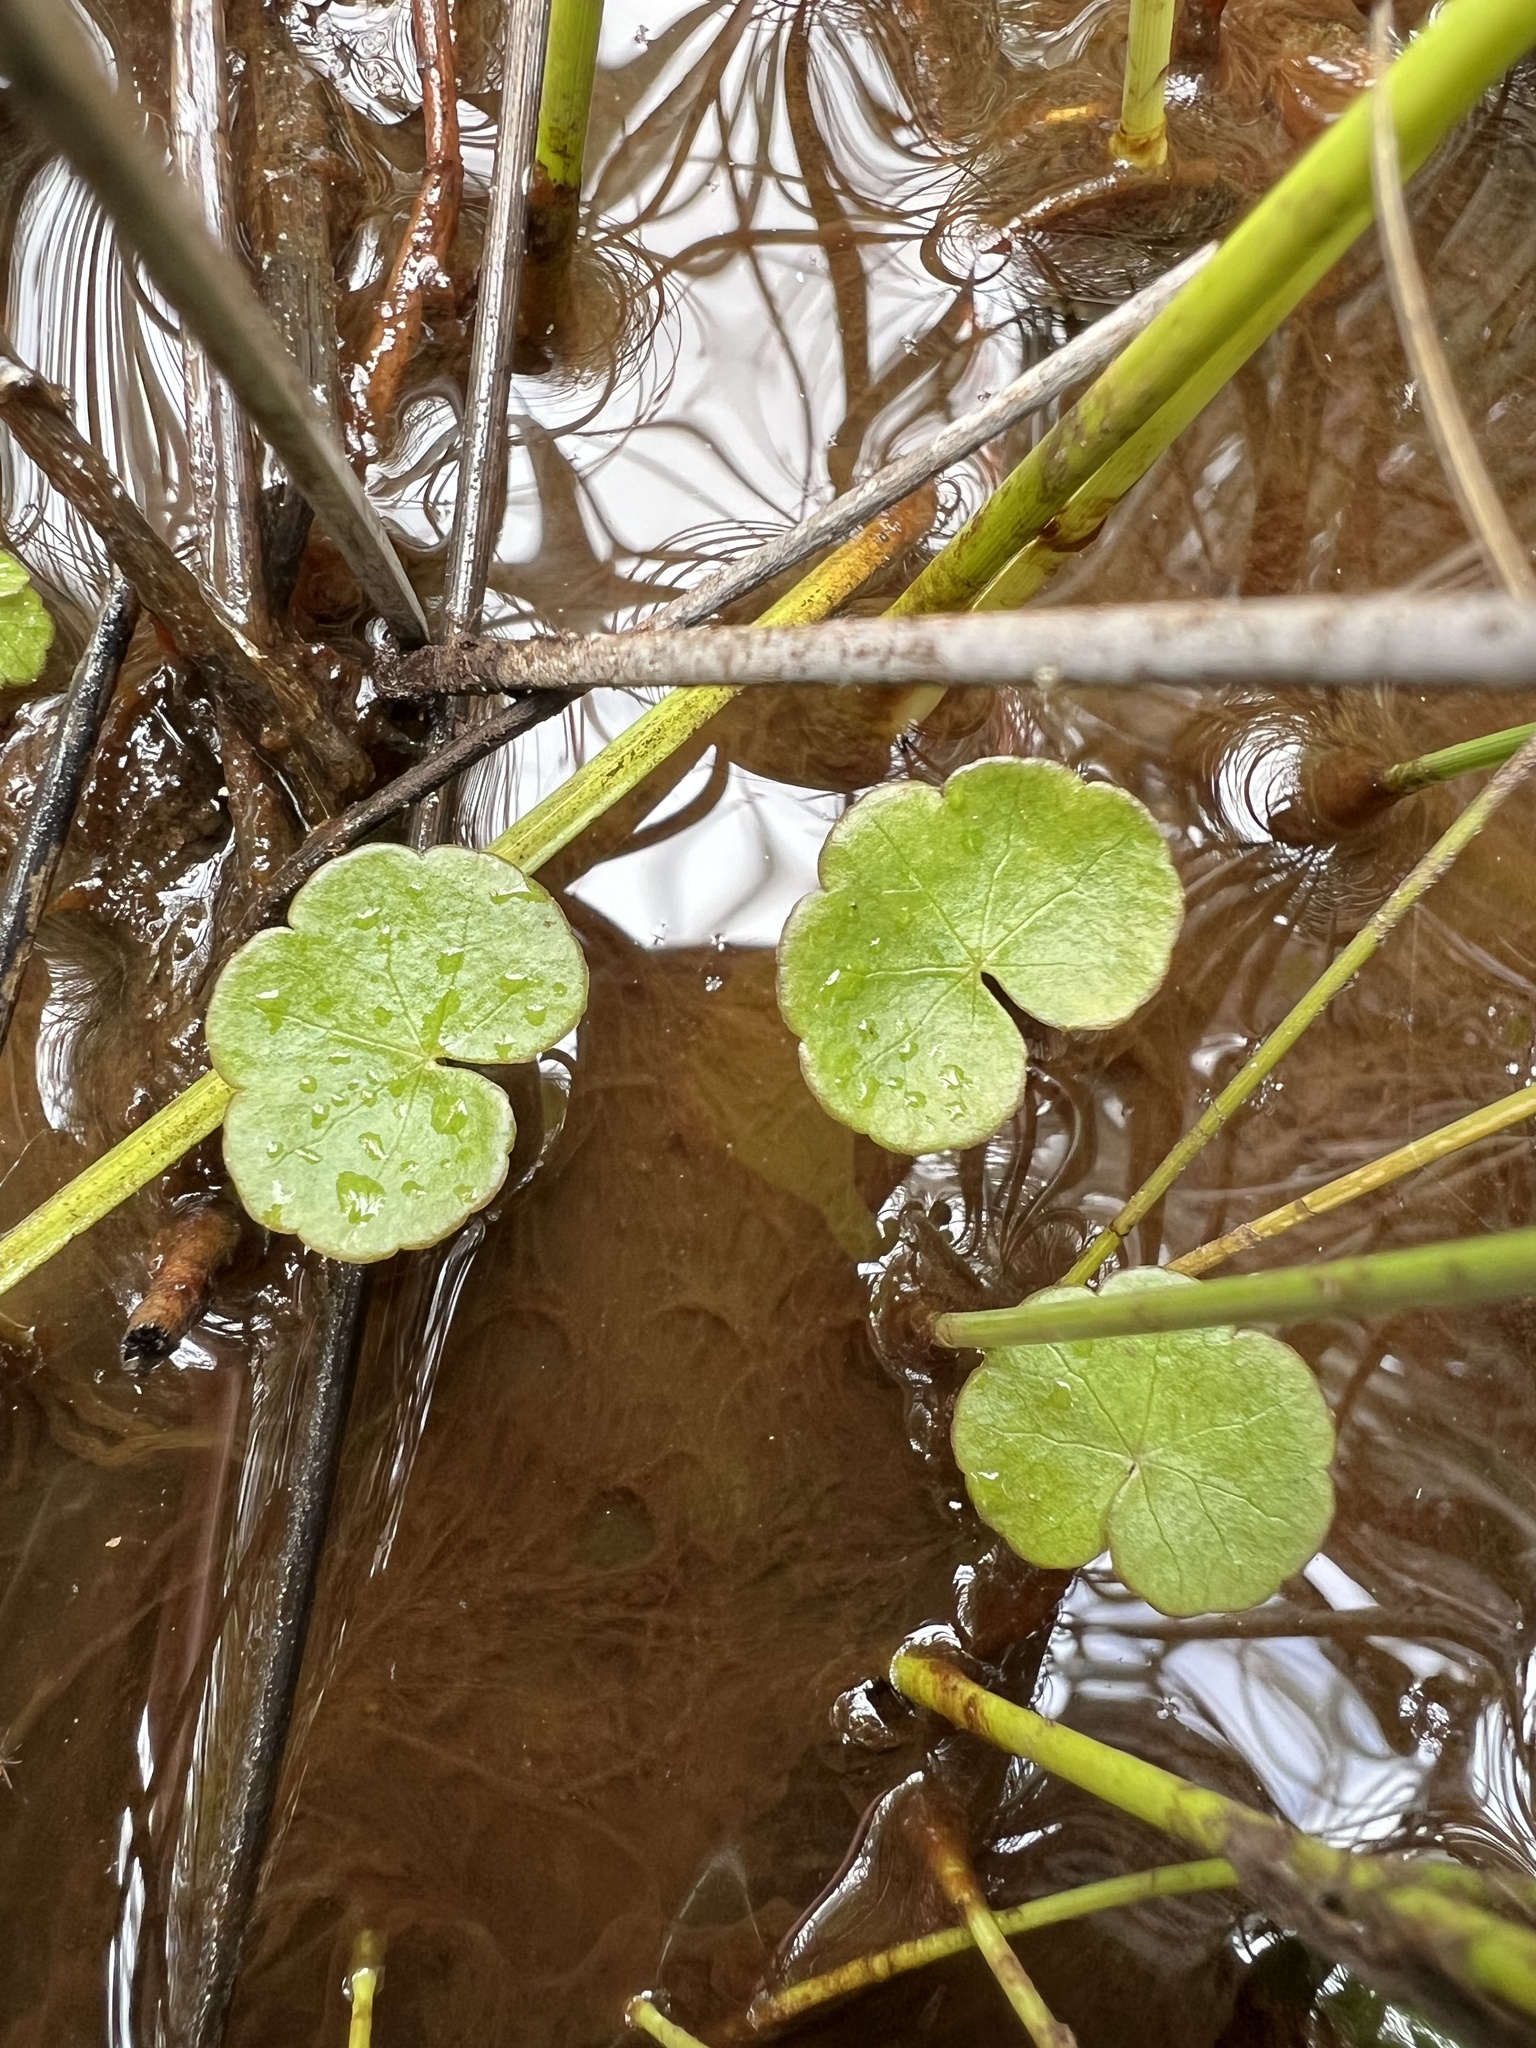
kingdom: Plantae
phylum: Tracheophyta
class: Magnoliopsida
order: Apiales
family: Araliaceae
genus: Hydrocotyle
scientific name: Hydrocotyle pterocarpa
